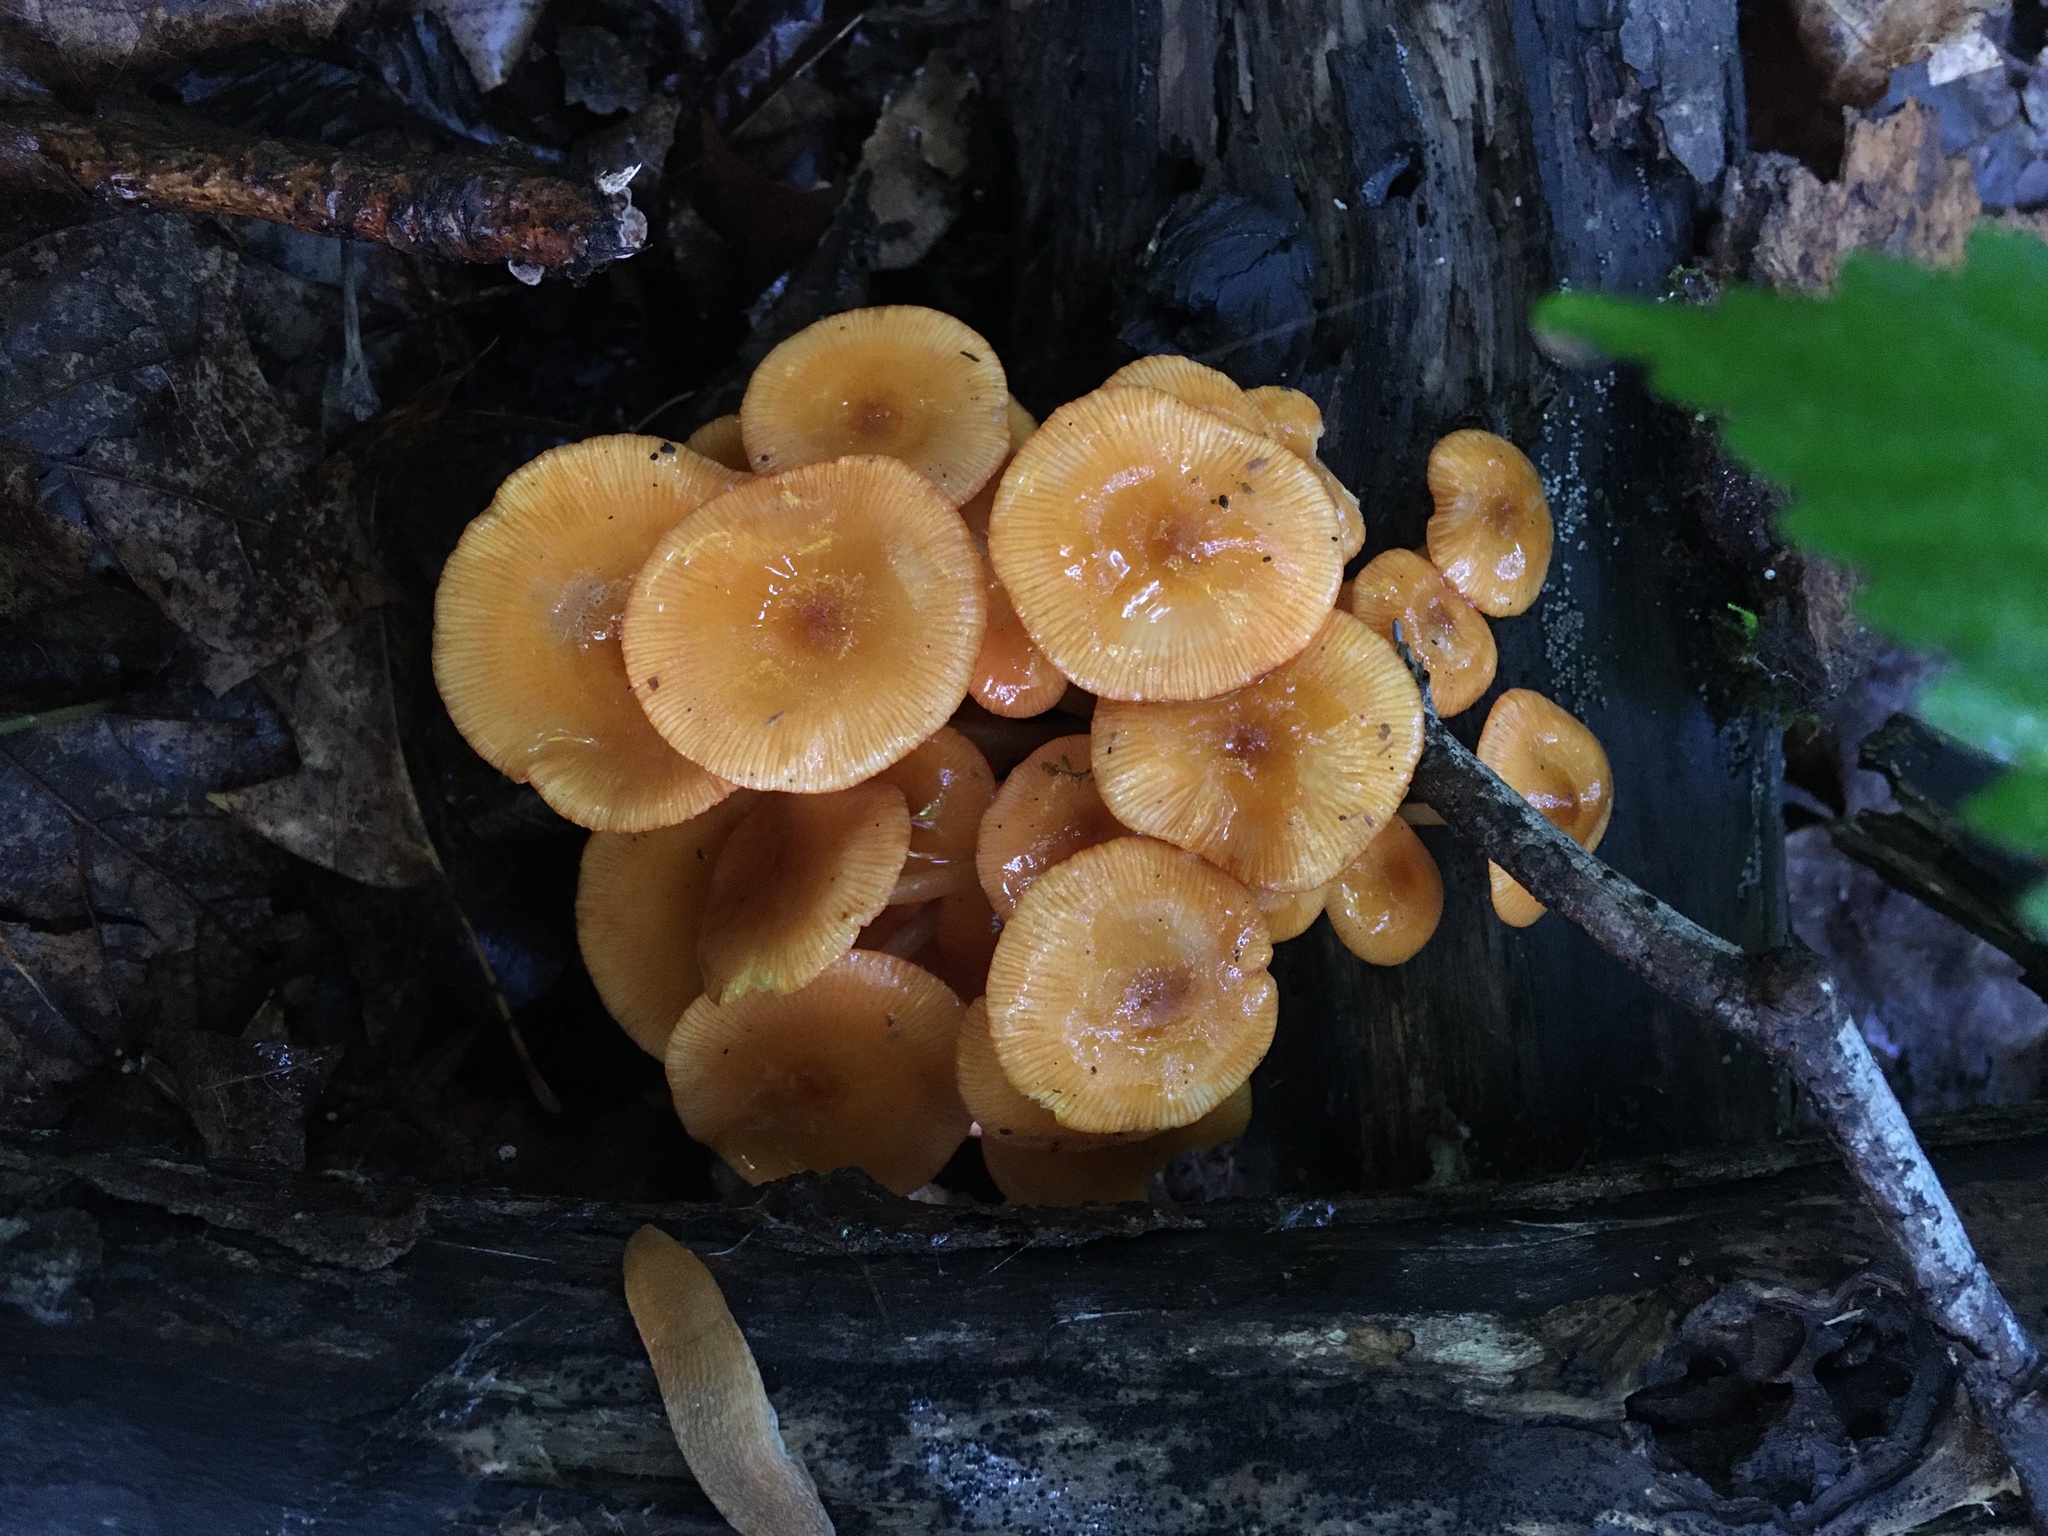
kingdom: Fungi
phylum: Basidiomycota
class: Agaricomycetes
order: Agaricales
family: Mycenaceae
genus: Mycena
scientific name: Mycena leaiana
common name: Orange mycena
